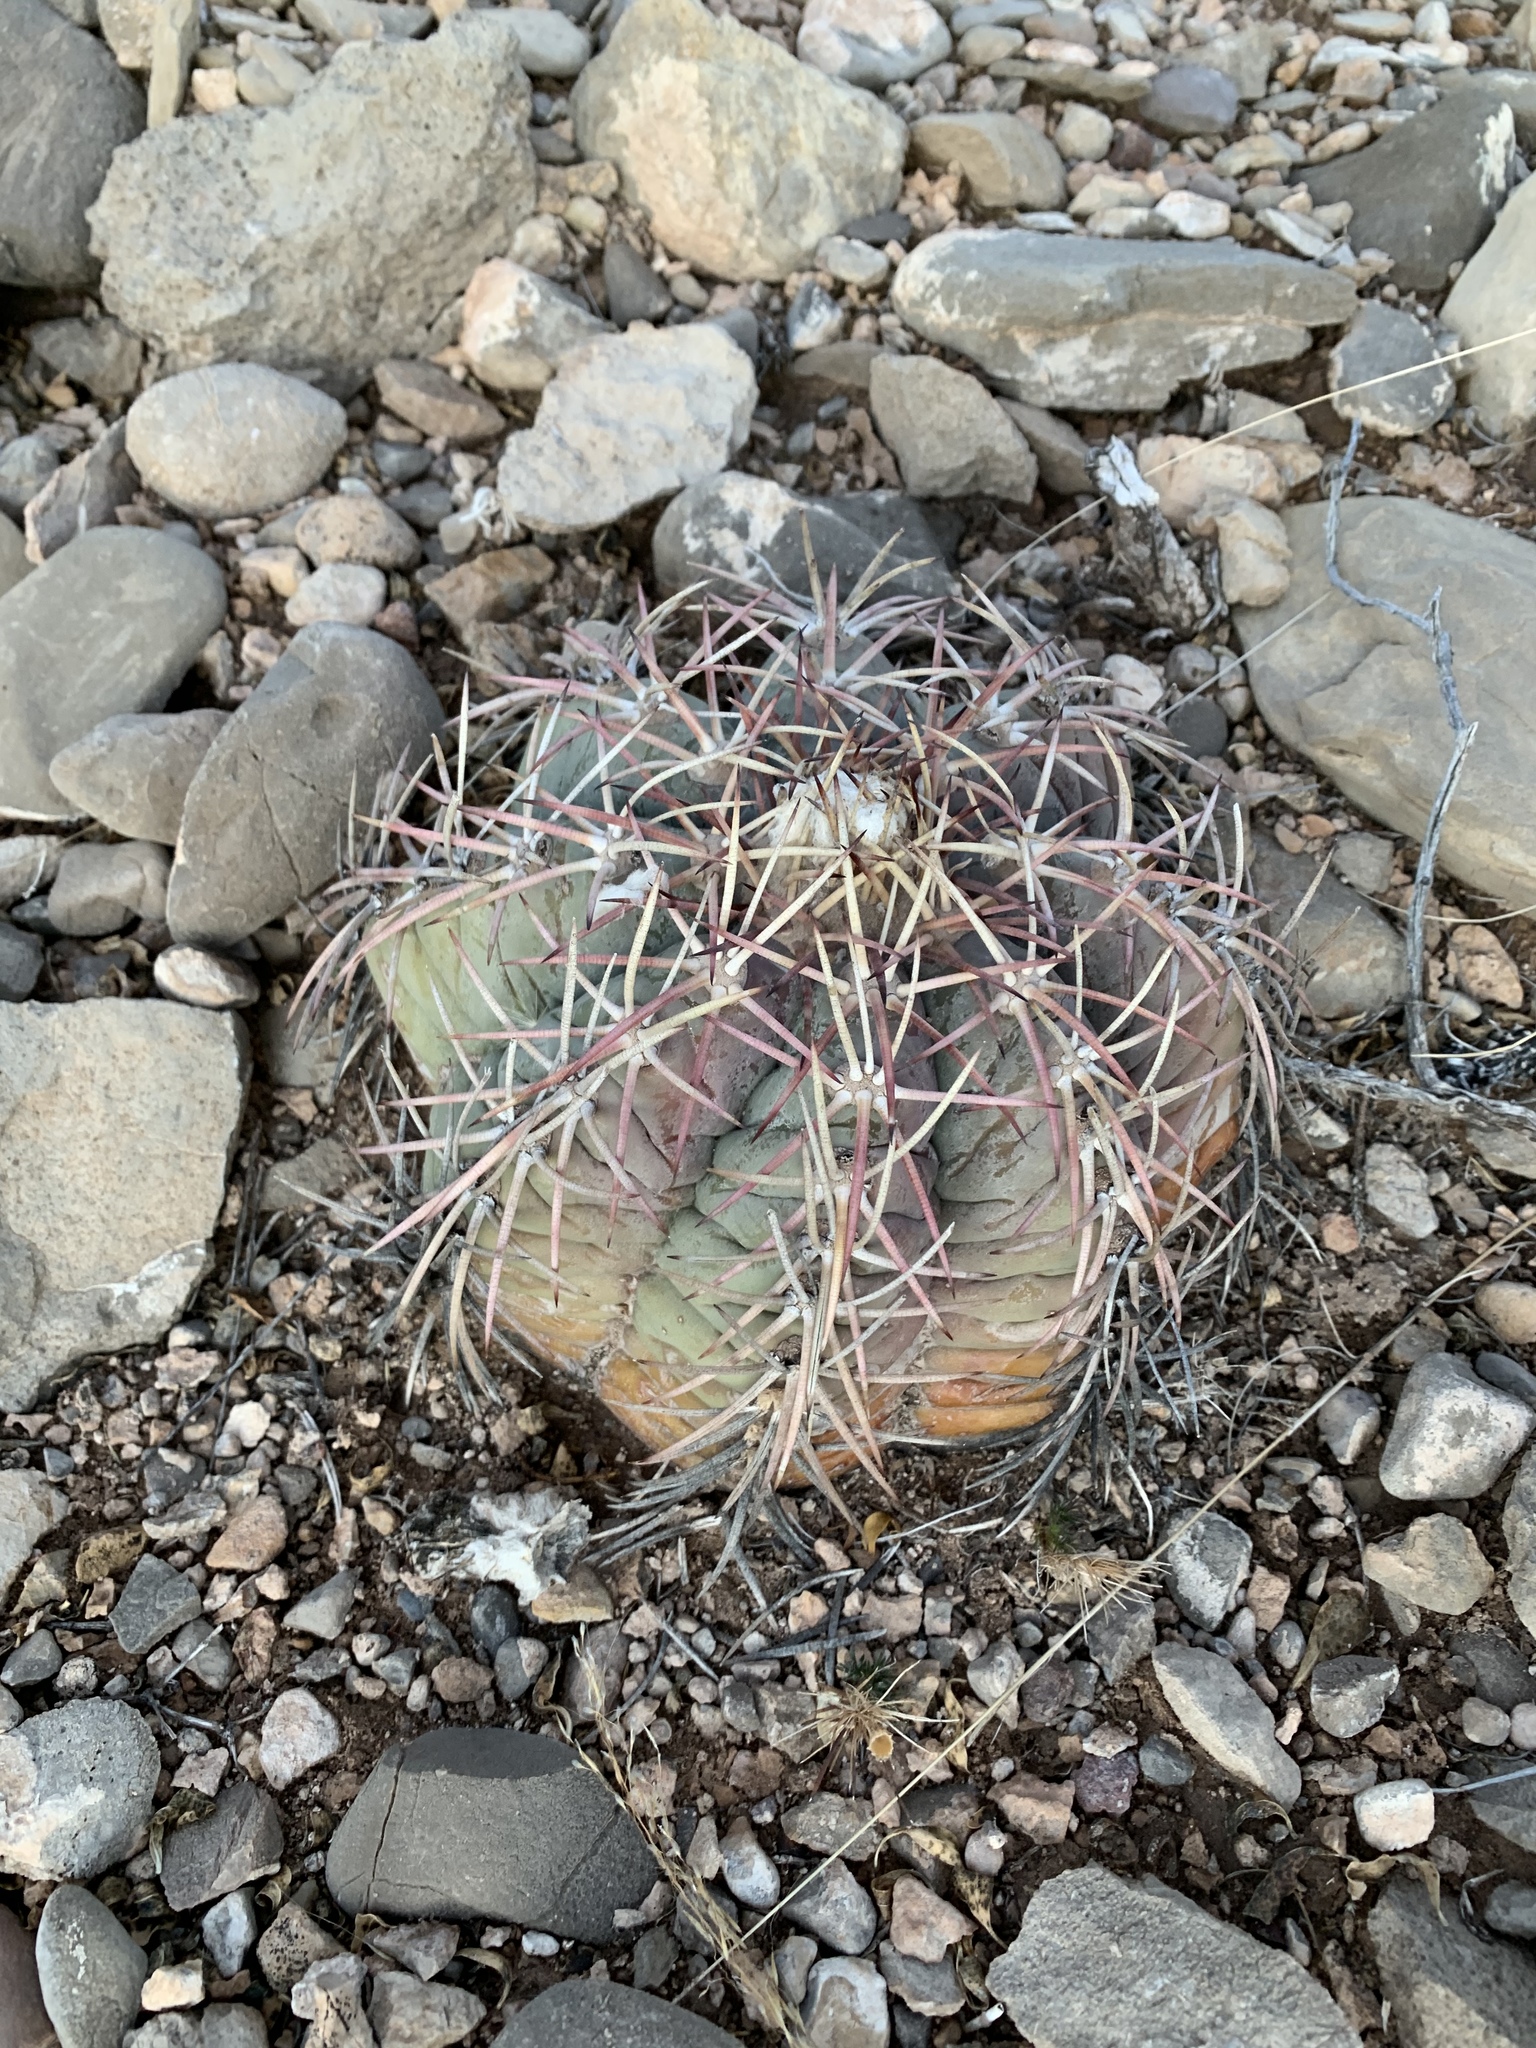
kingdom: Plantae
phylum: Tracheophyta
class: Magnoliopsida
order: Caryophyllales
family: Cactaceae
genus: Echinocactus
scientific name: Echinocactus horizonthalonius
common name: Devilshead
